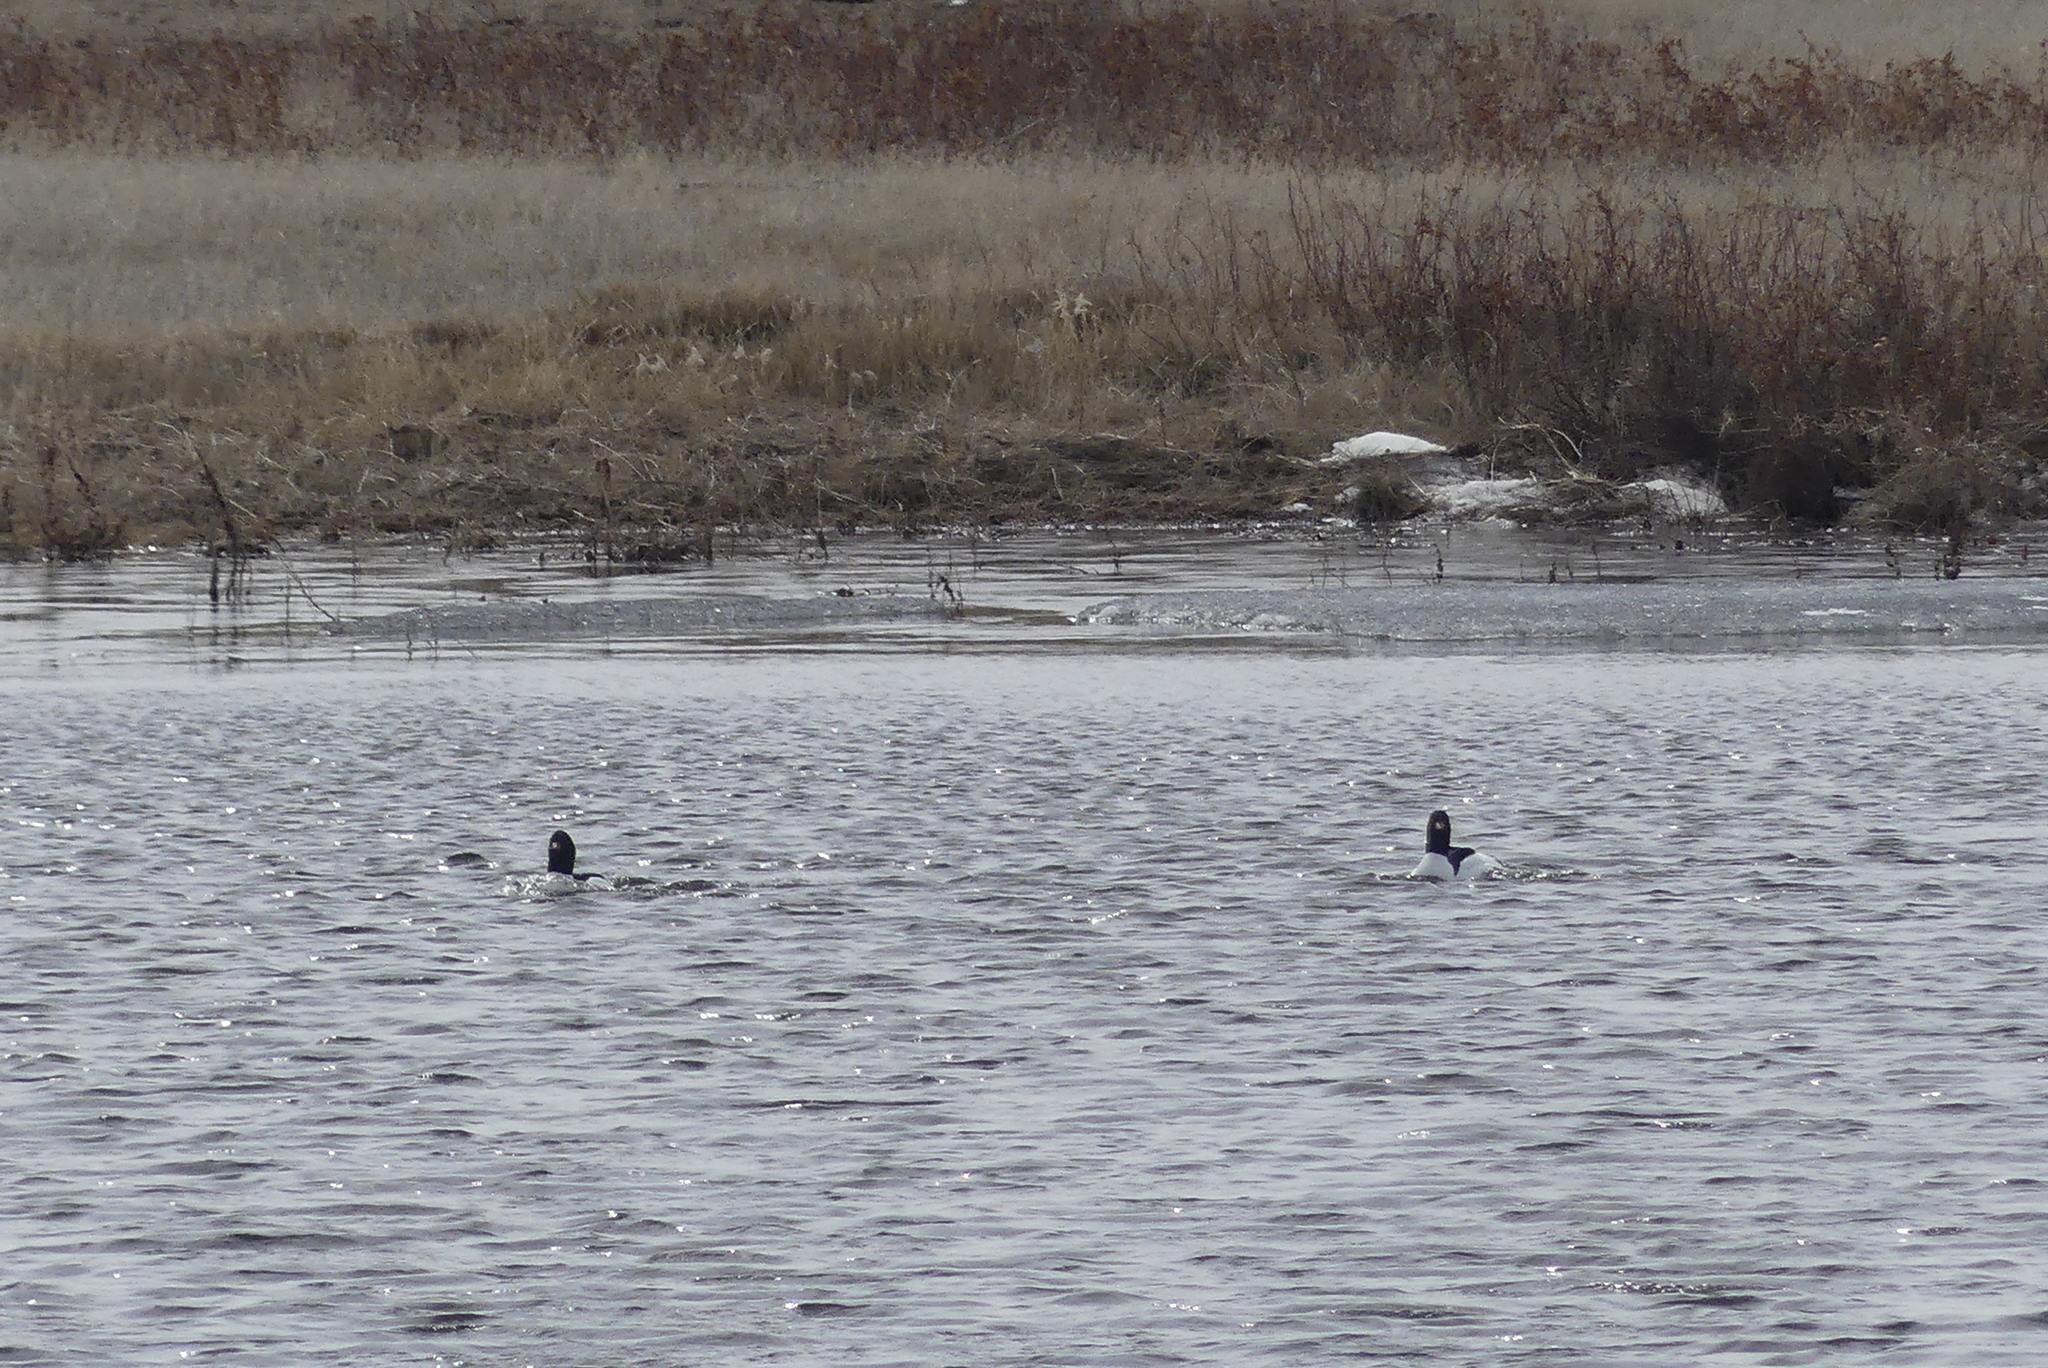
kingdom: Animalia
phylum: Chordata
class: Aves
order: Anseriformes
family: Anatidae
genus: Mergus
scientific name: Mergus merganser
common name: Common merganser
